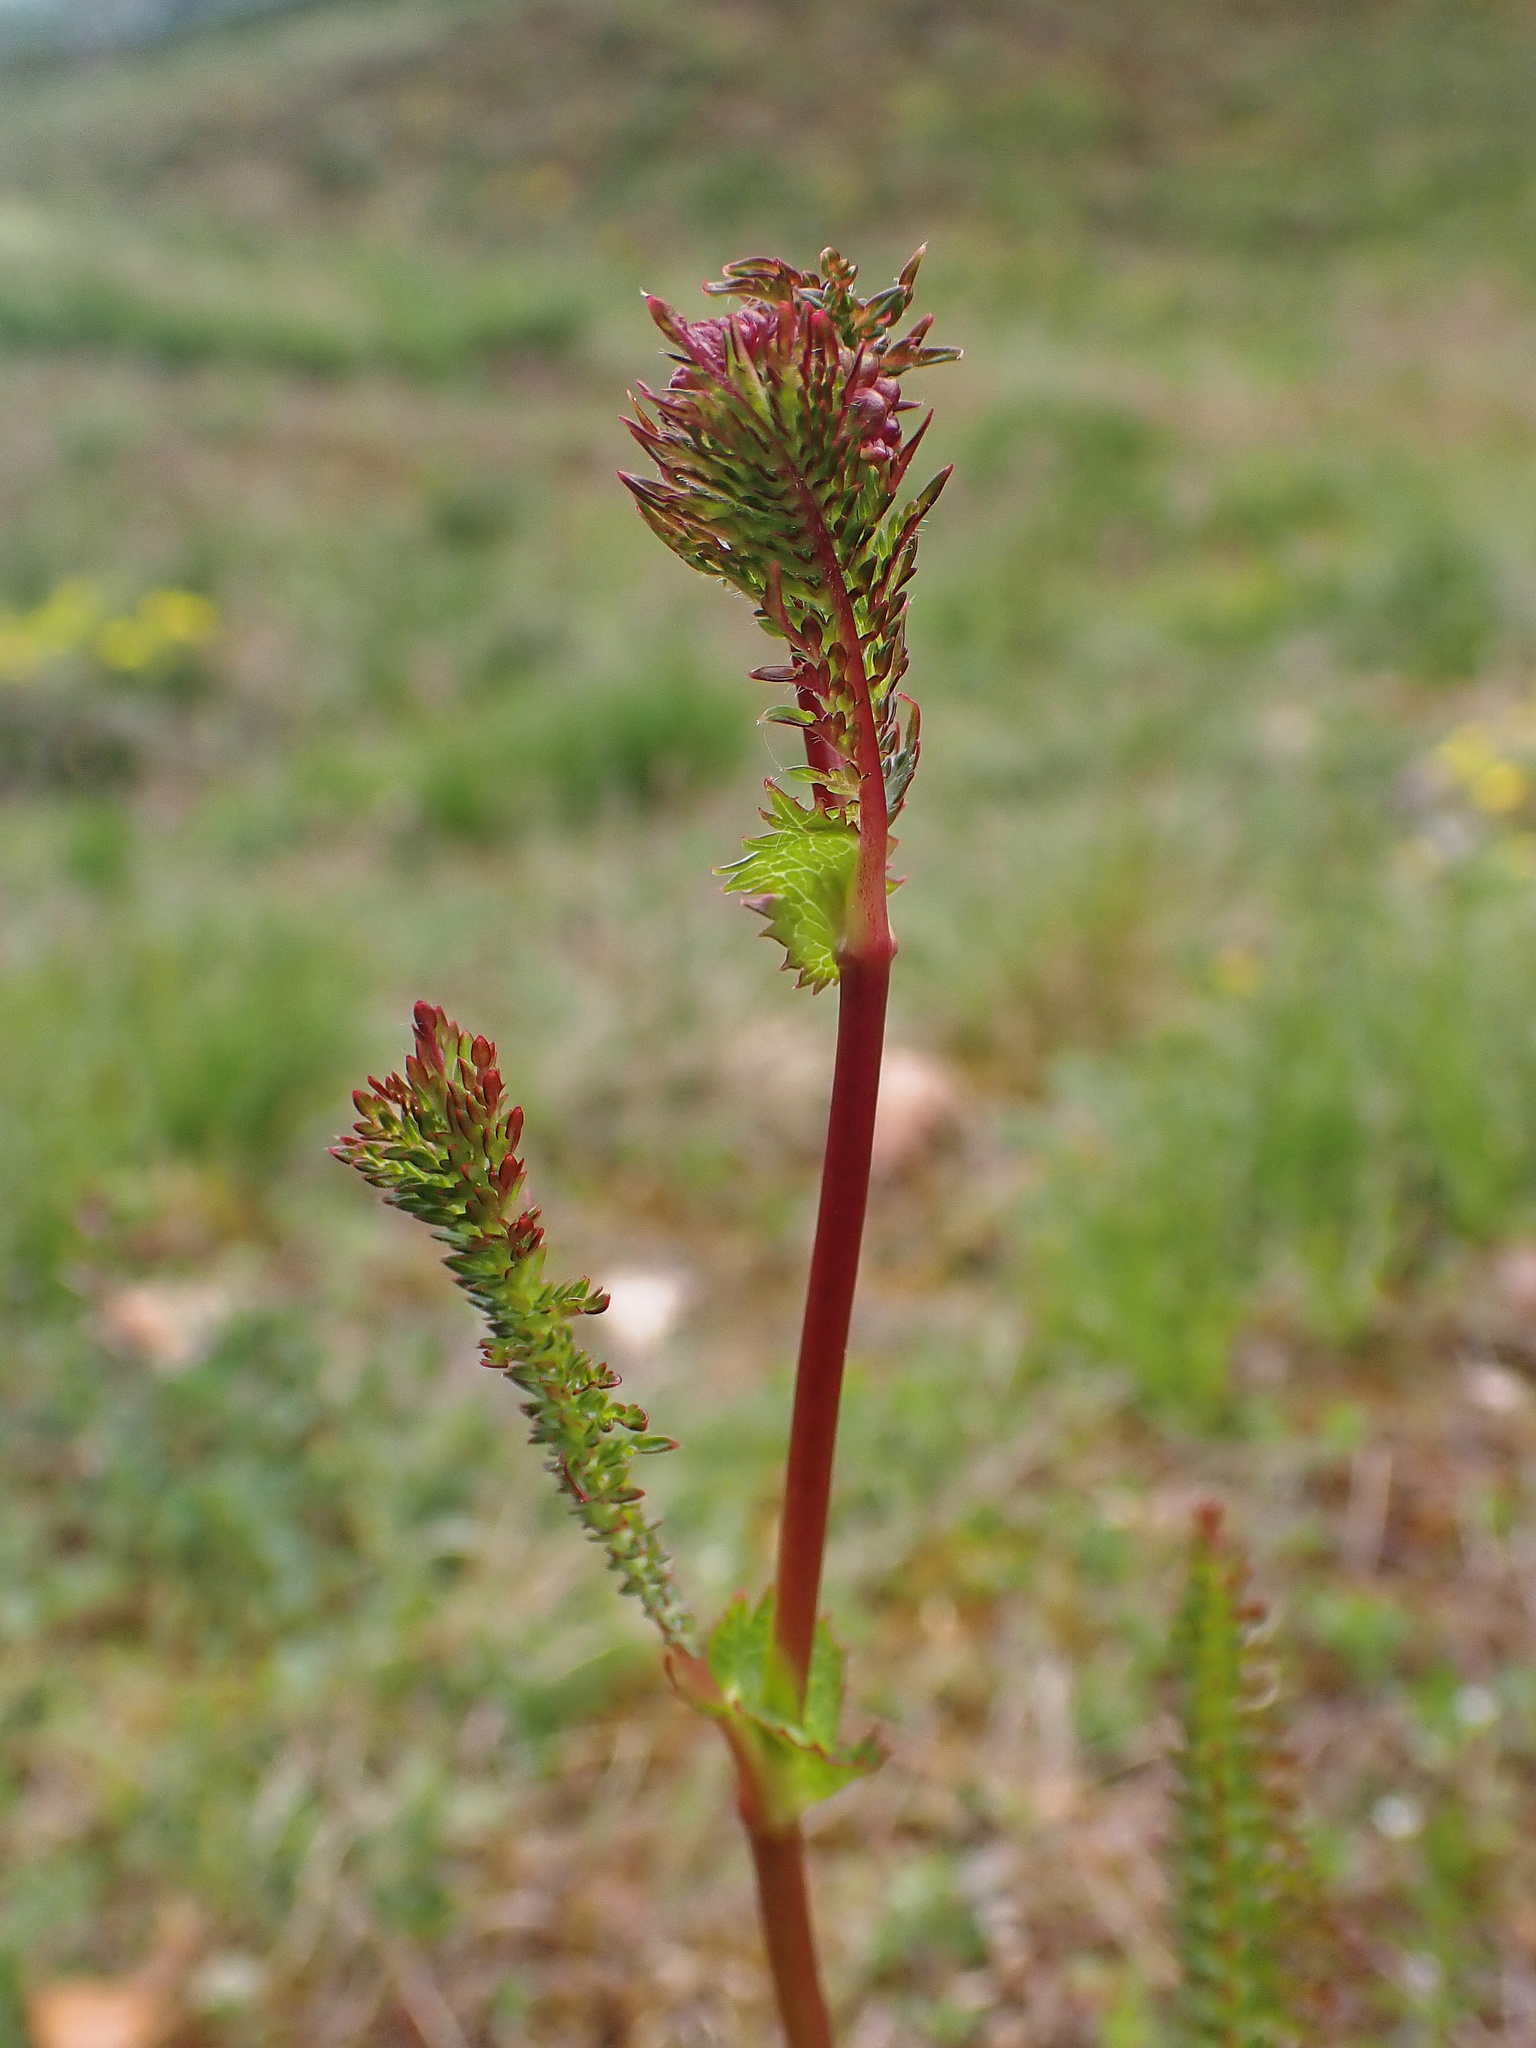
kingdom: Plantae
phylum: Tracheophyta
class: Magnoliopsida
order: Rosales
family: Rosaceae
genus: Filipendula
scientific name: Filipendula vulgaris
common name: Dropwort
